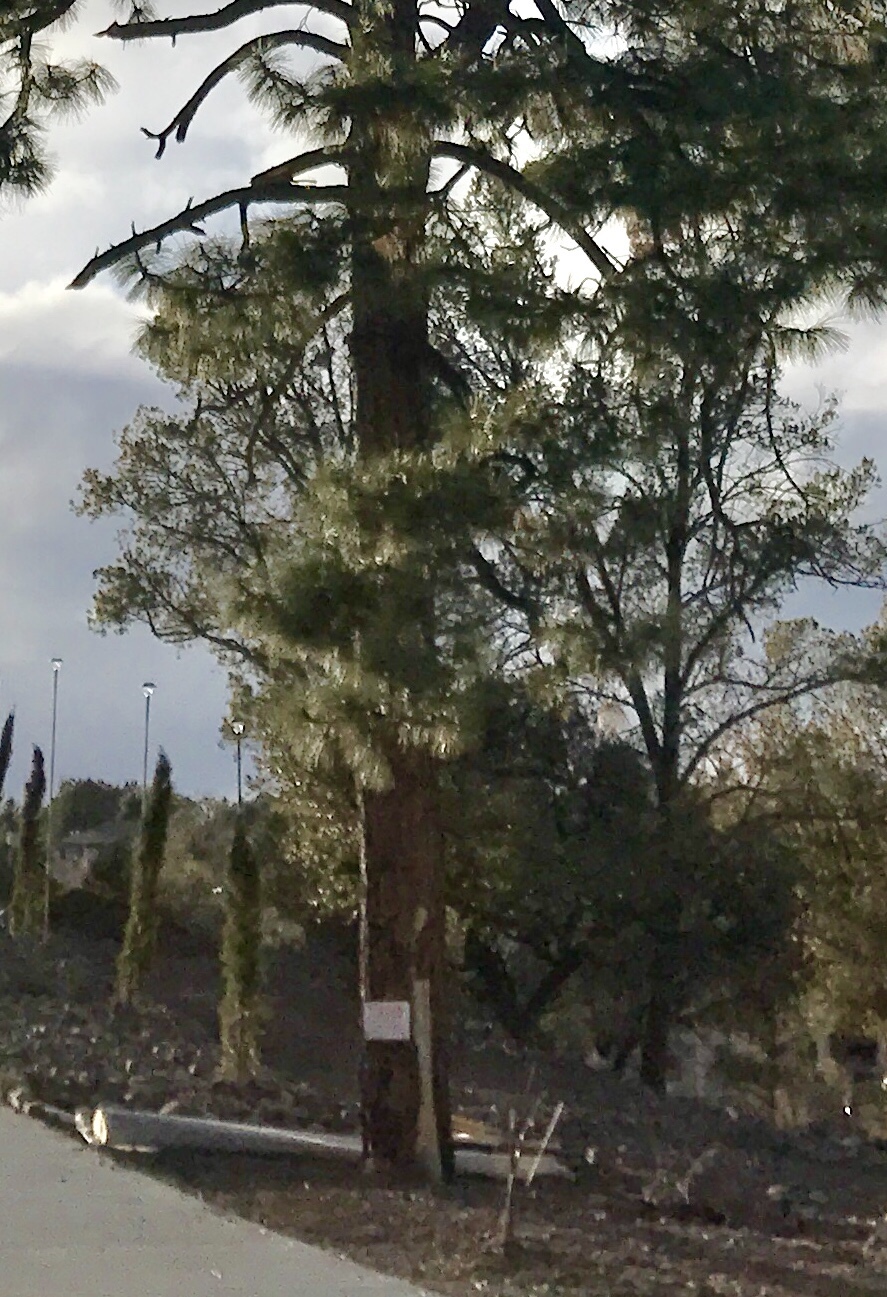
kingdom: Plantae
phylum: Tracheophyta
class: Pinopsida
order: Pinales
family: Pinaceae
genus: Pinus
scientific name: Pinus ponderosa
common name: Western yellow-pine
